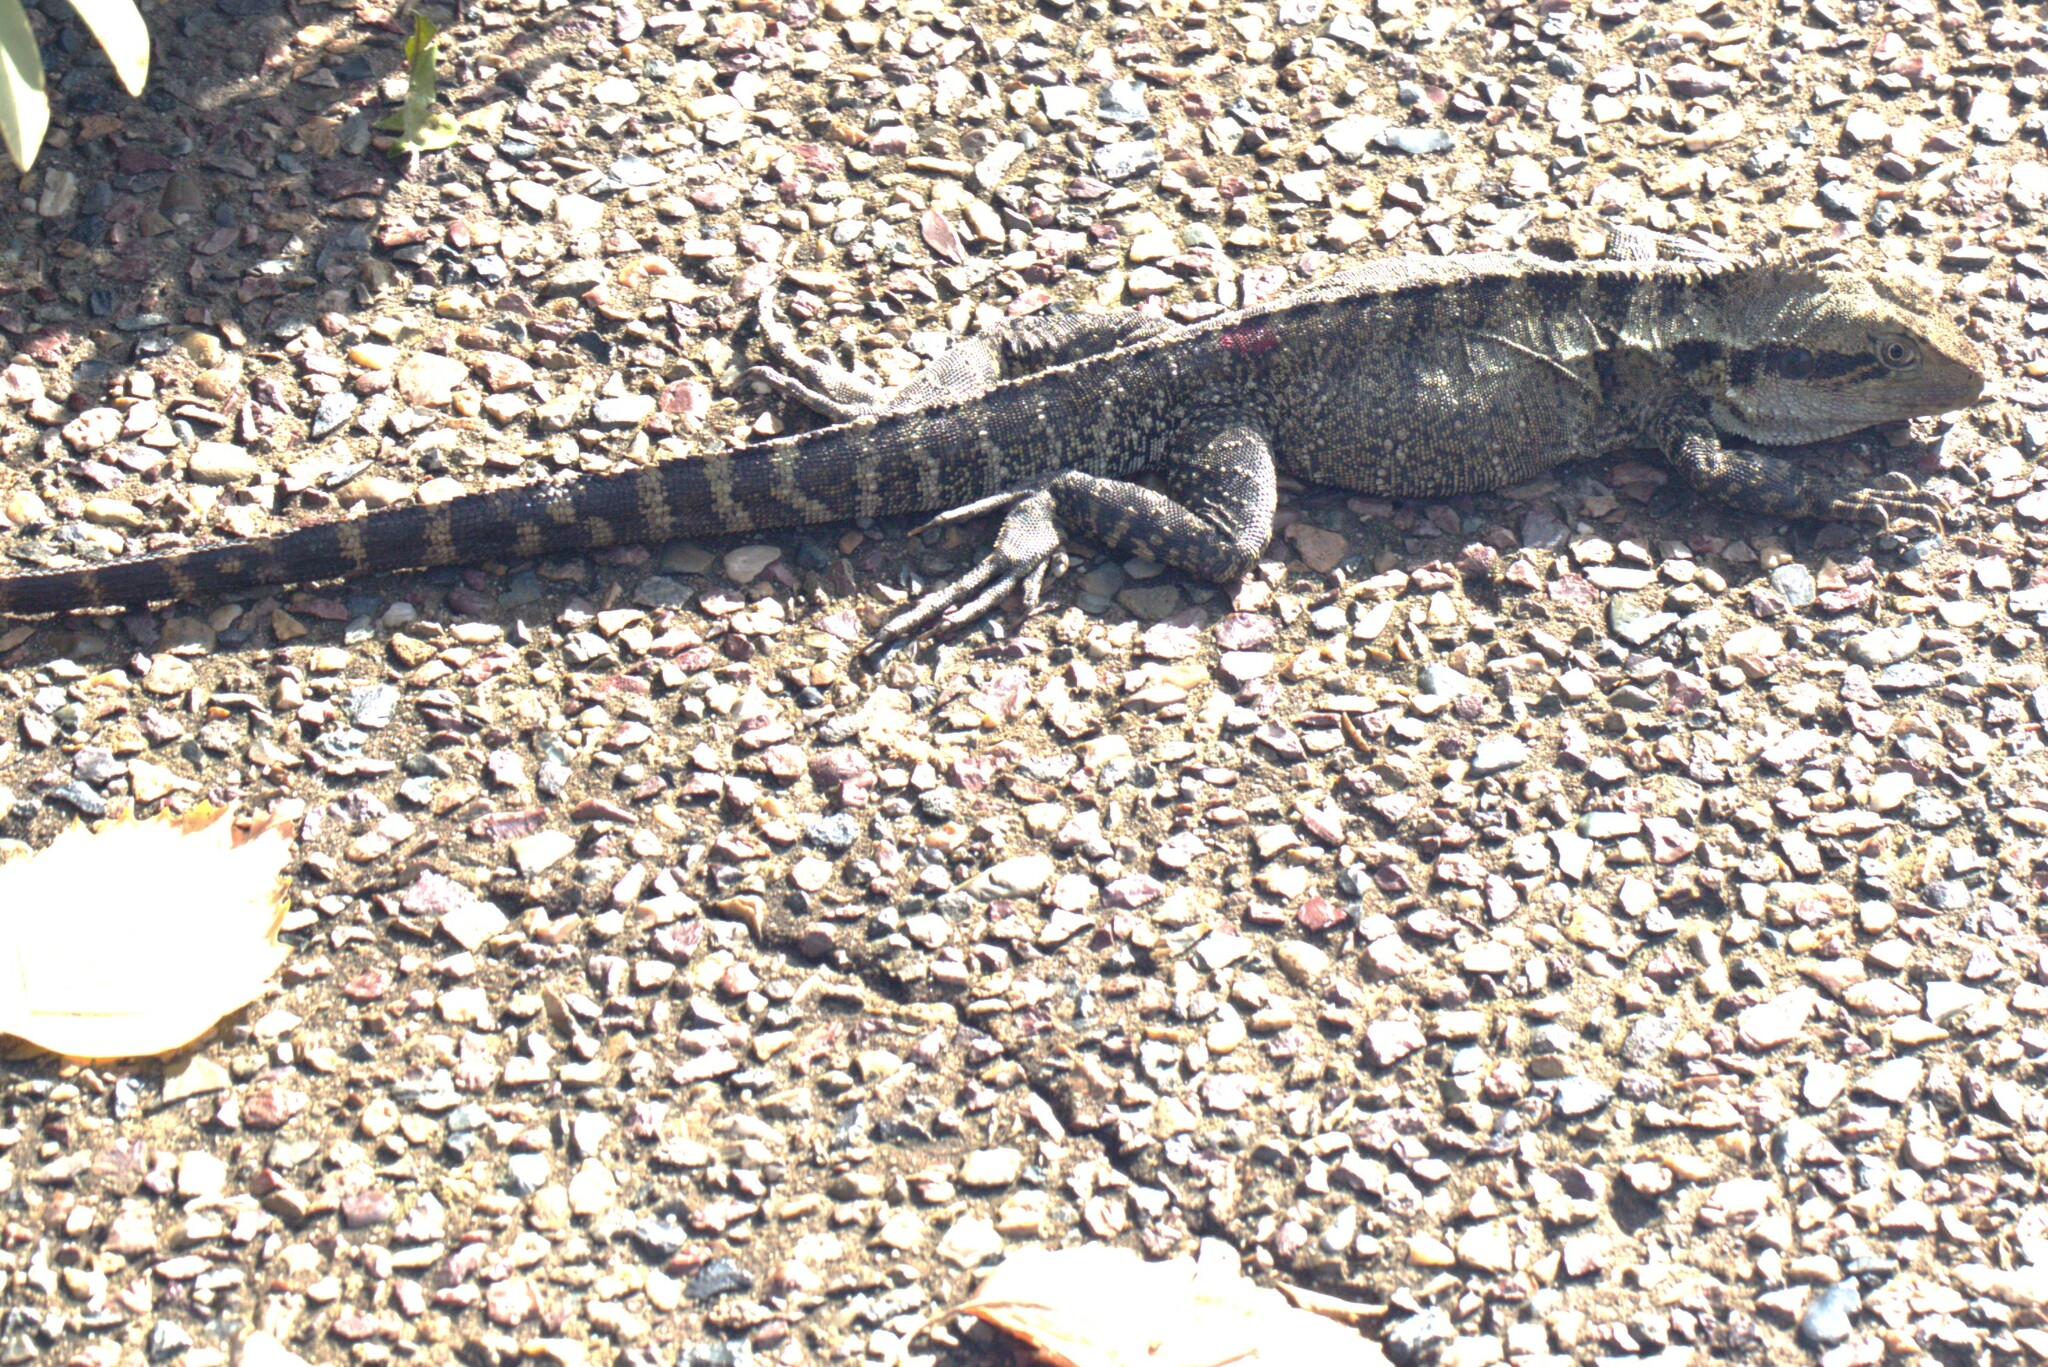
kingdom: Animalia
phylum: Chordata
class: Squamata
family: Agamidae
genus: Intellagama
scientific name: Intellagama lesueurii
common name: Eastern water dragon
